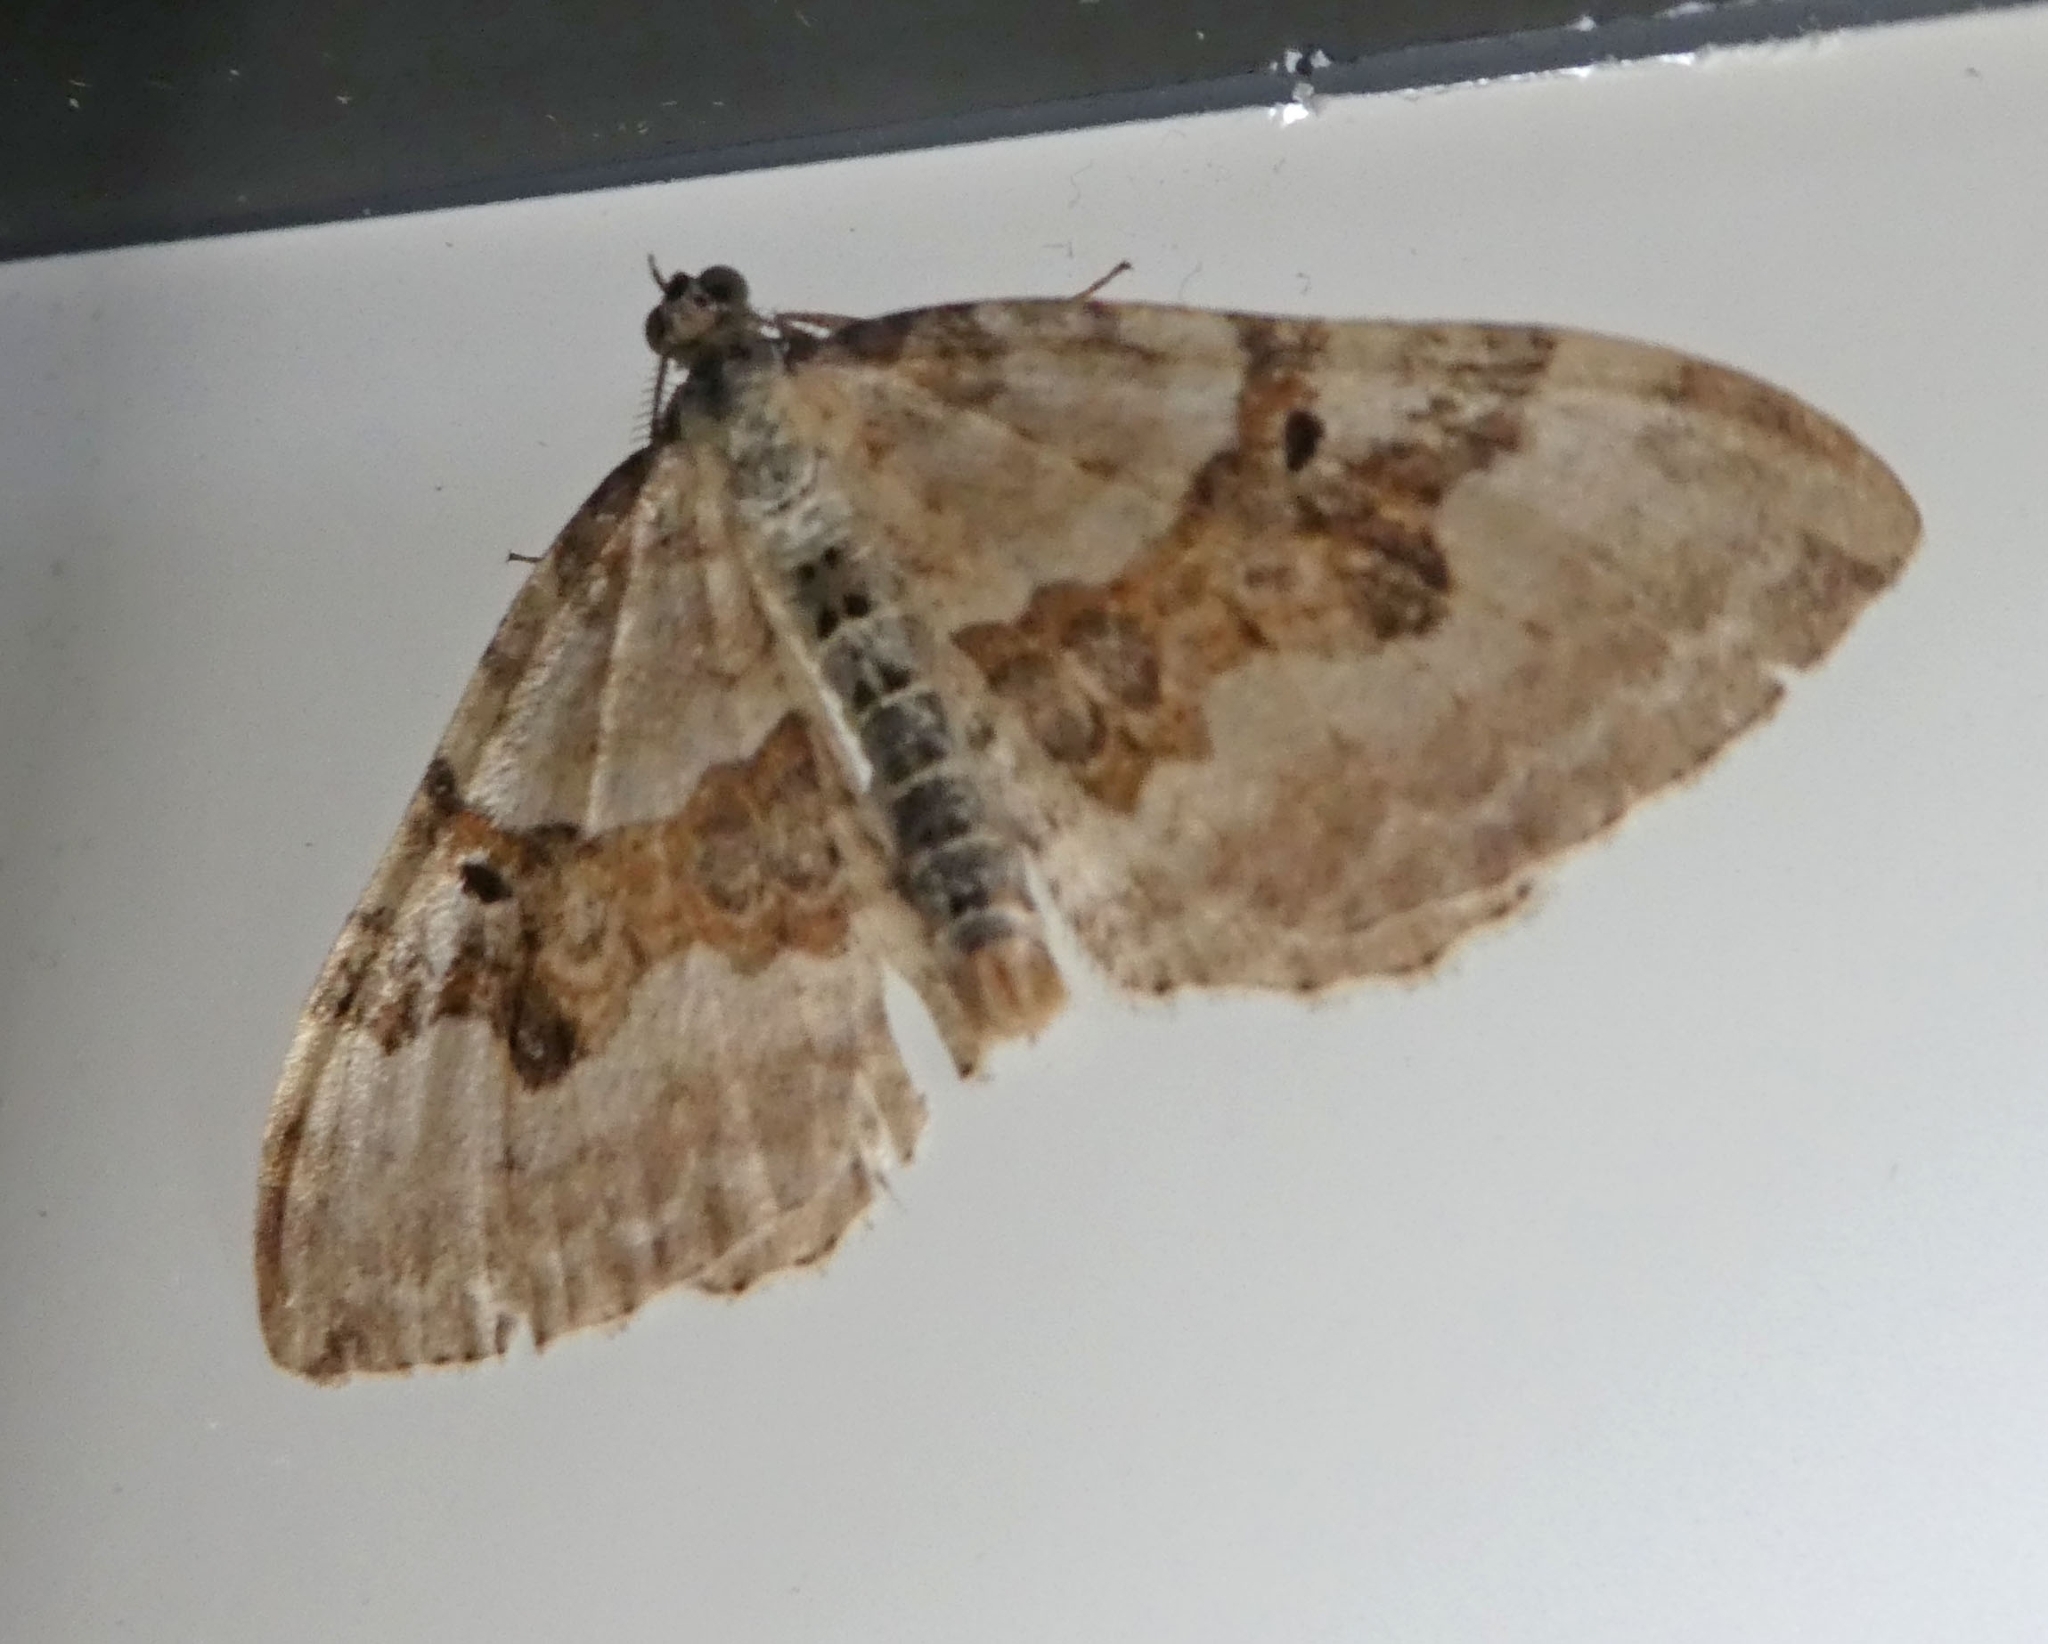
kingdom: Animalia
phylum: Arthropoda
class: Insecta
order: Lepidoptera
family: Geometridae
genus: Xanthorhoe
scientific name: Xanthorhoe montanata
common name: Silver-ground carpet
